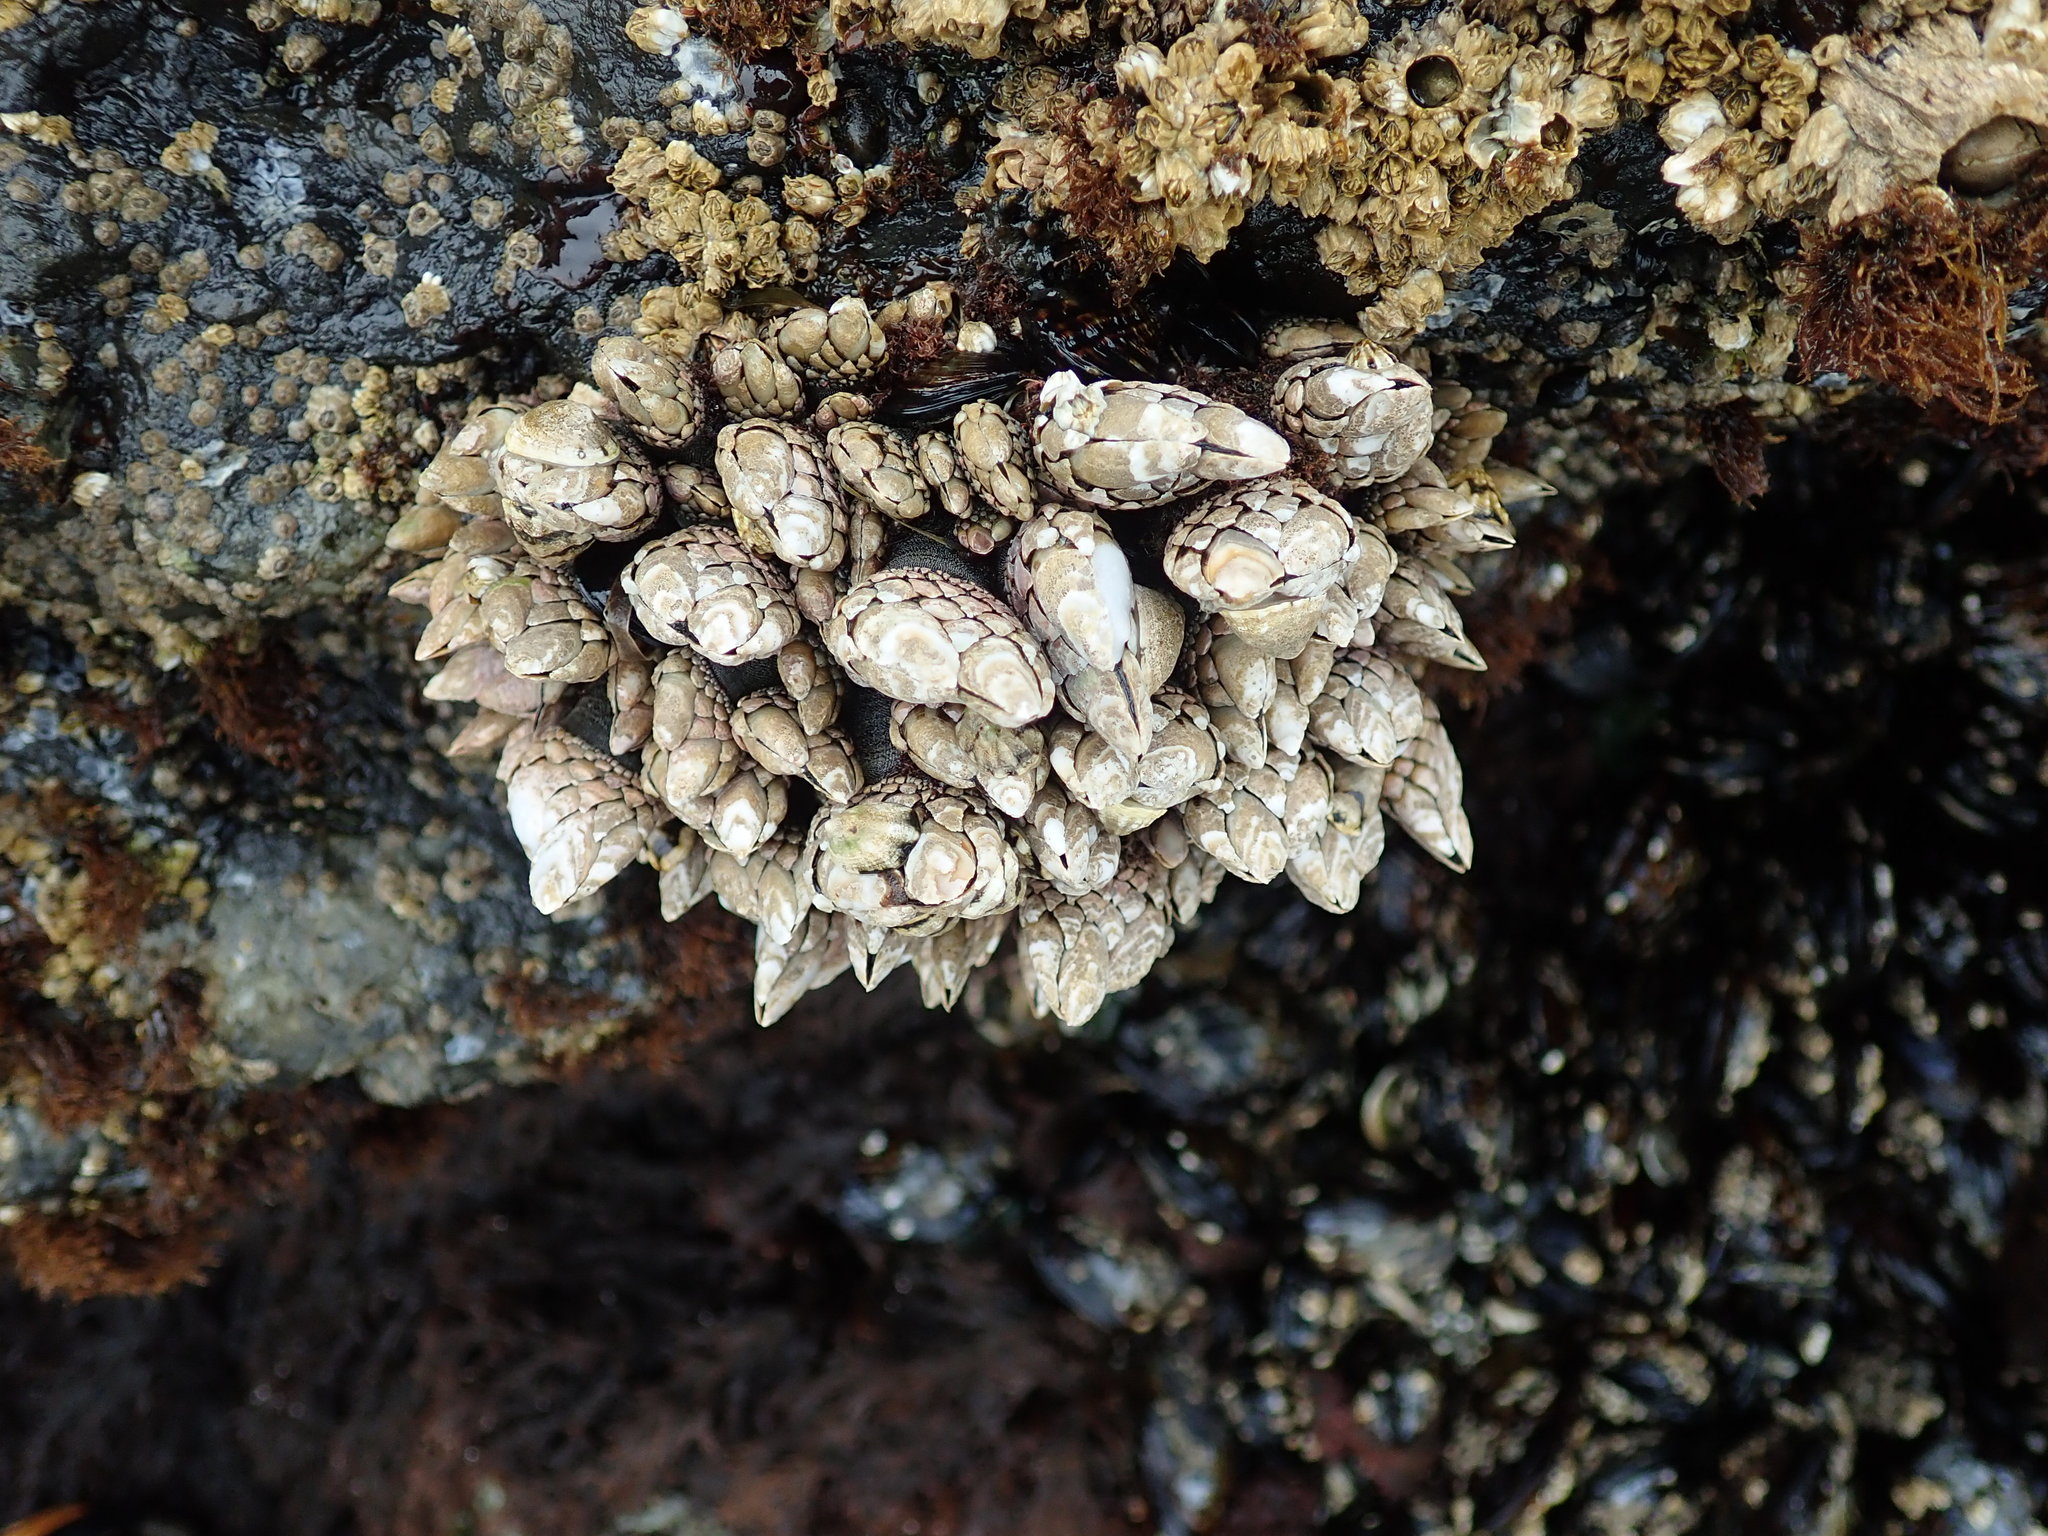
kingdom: Animalia
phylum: Arthropoda
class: Maxillopoda
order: Pedunculata
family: Pollicipedidae
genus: Pollicipes
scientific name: Pollicipes polymerus
